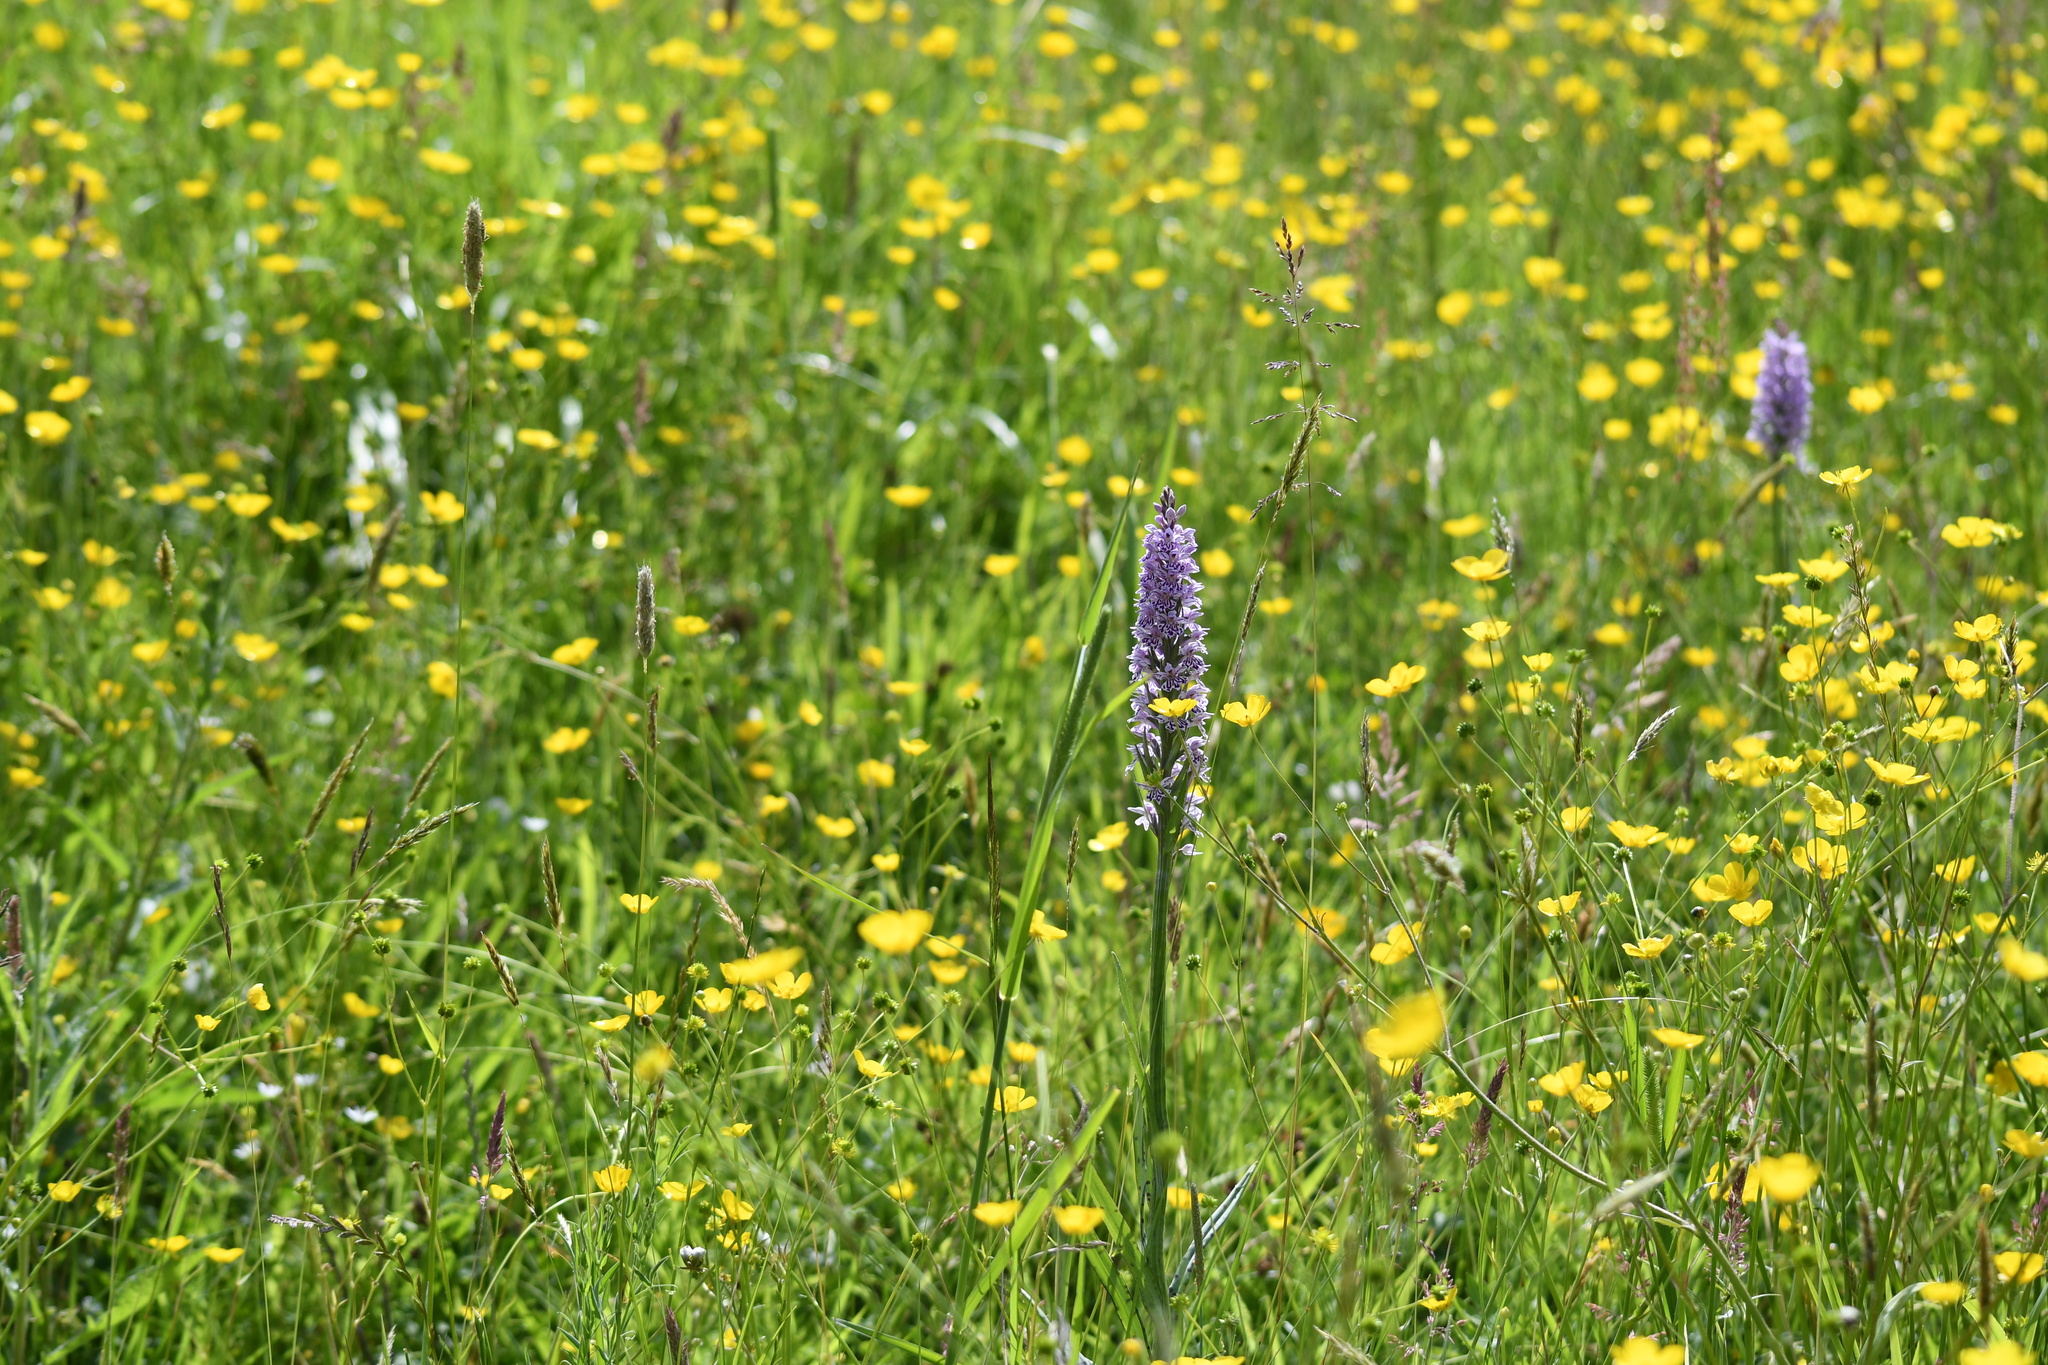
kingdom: Plantae
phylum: Tracheophyta
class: Liliopsida
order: Asparagales
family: Orchidaceae
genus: Dactylorhiza
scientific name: Dactylorhiza maculata
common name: Heath spotted-orchid
